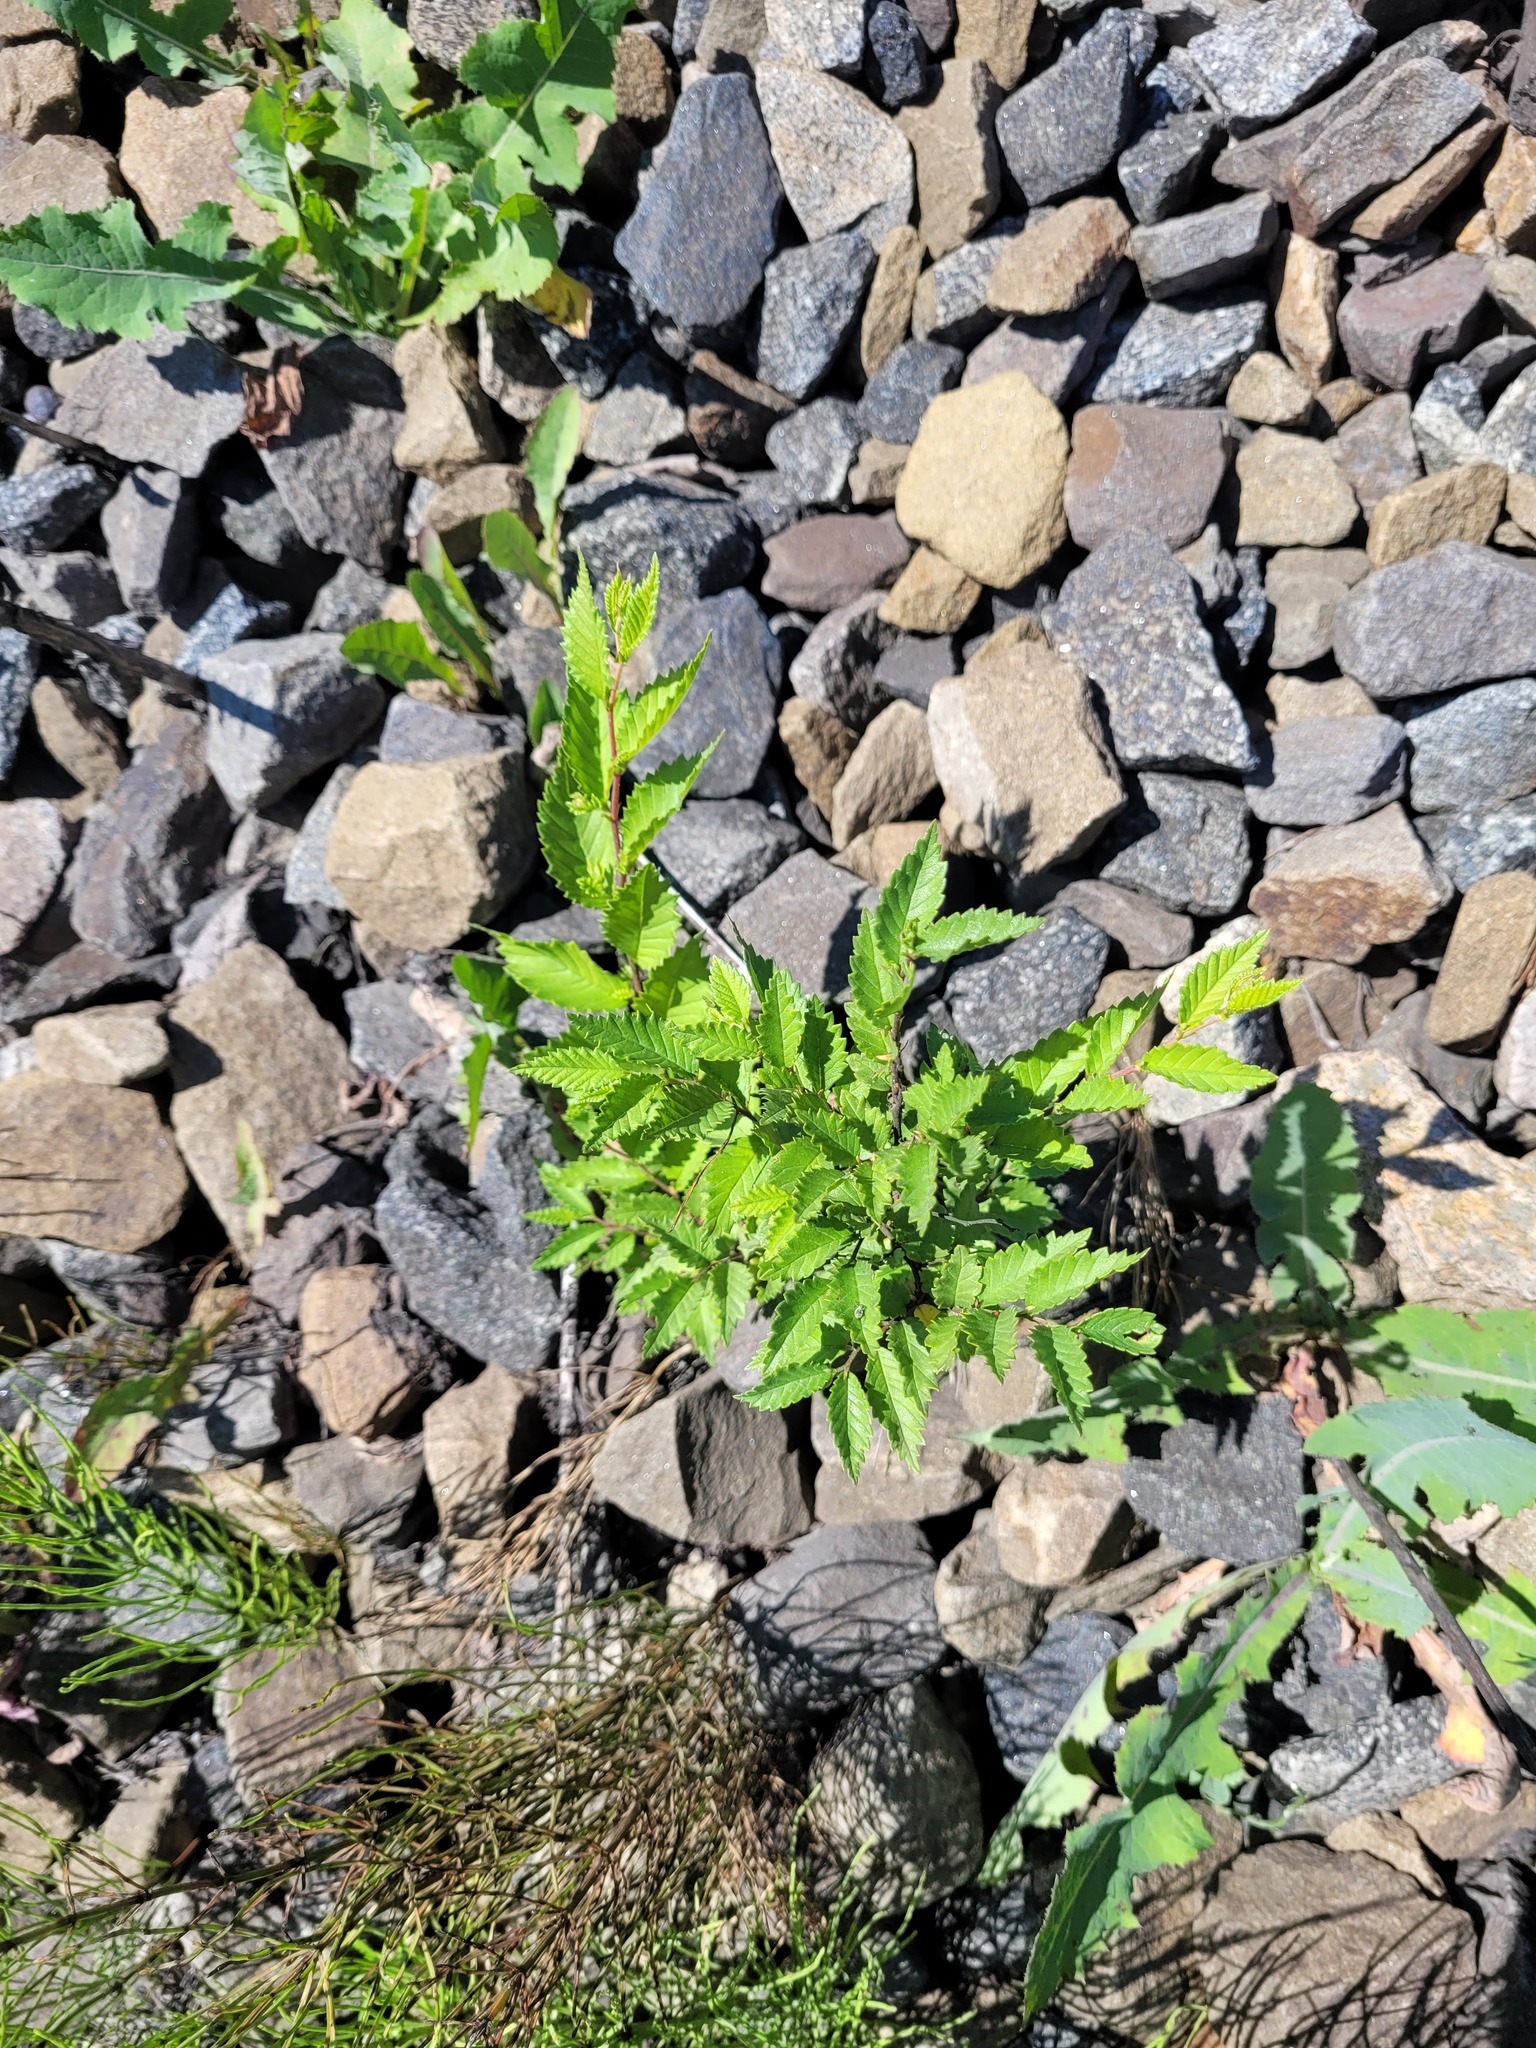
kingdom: Plantae
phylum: Tracheophyta
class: Magnoliopsida
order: Rosales
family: Ulmaceae
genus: Ulmus
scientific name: Ulmus pumila
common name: Siberian elm
